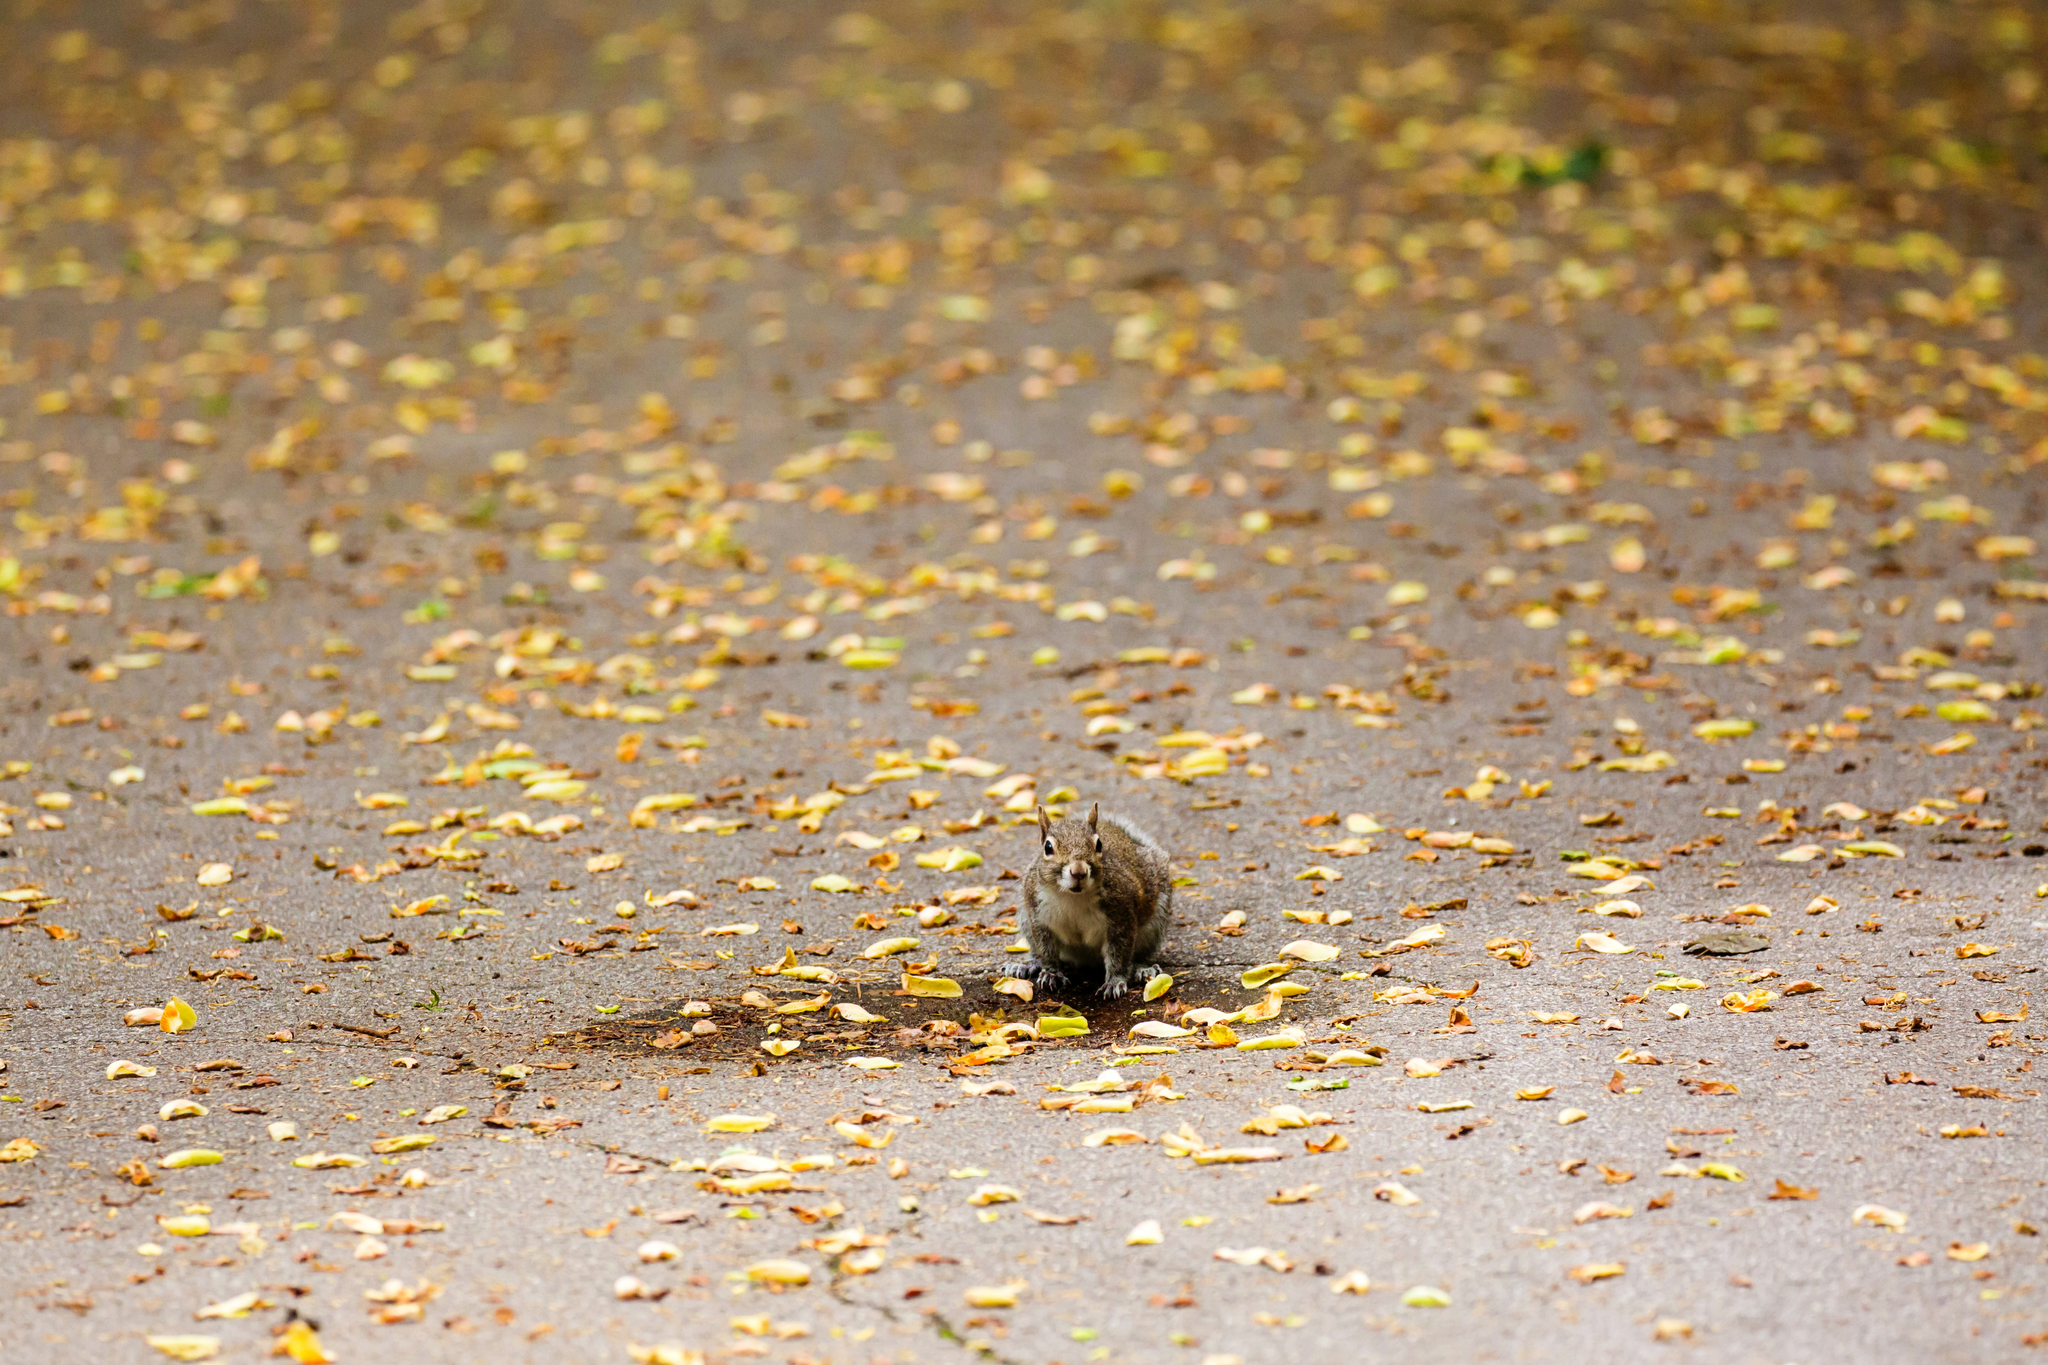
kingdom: Animalia
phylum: Chordata
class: Mammalia
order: Rodentia
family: Sciuridae
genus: Sciurus
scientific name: Sciurus carolinensis
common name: Eastern gray squirrel
